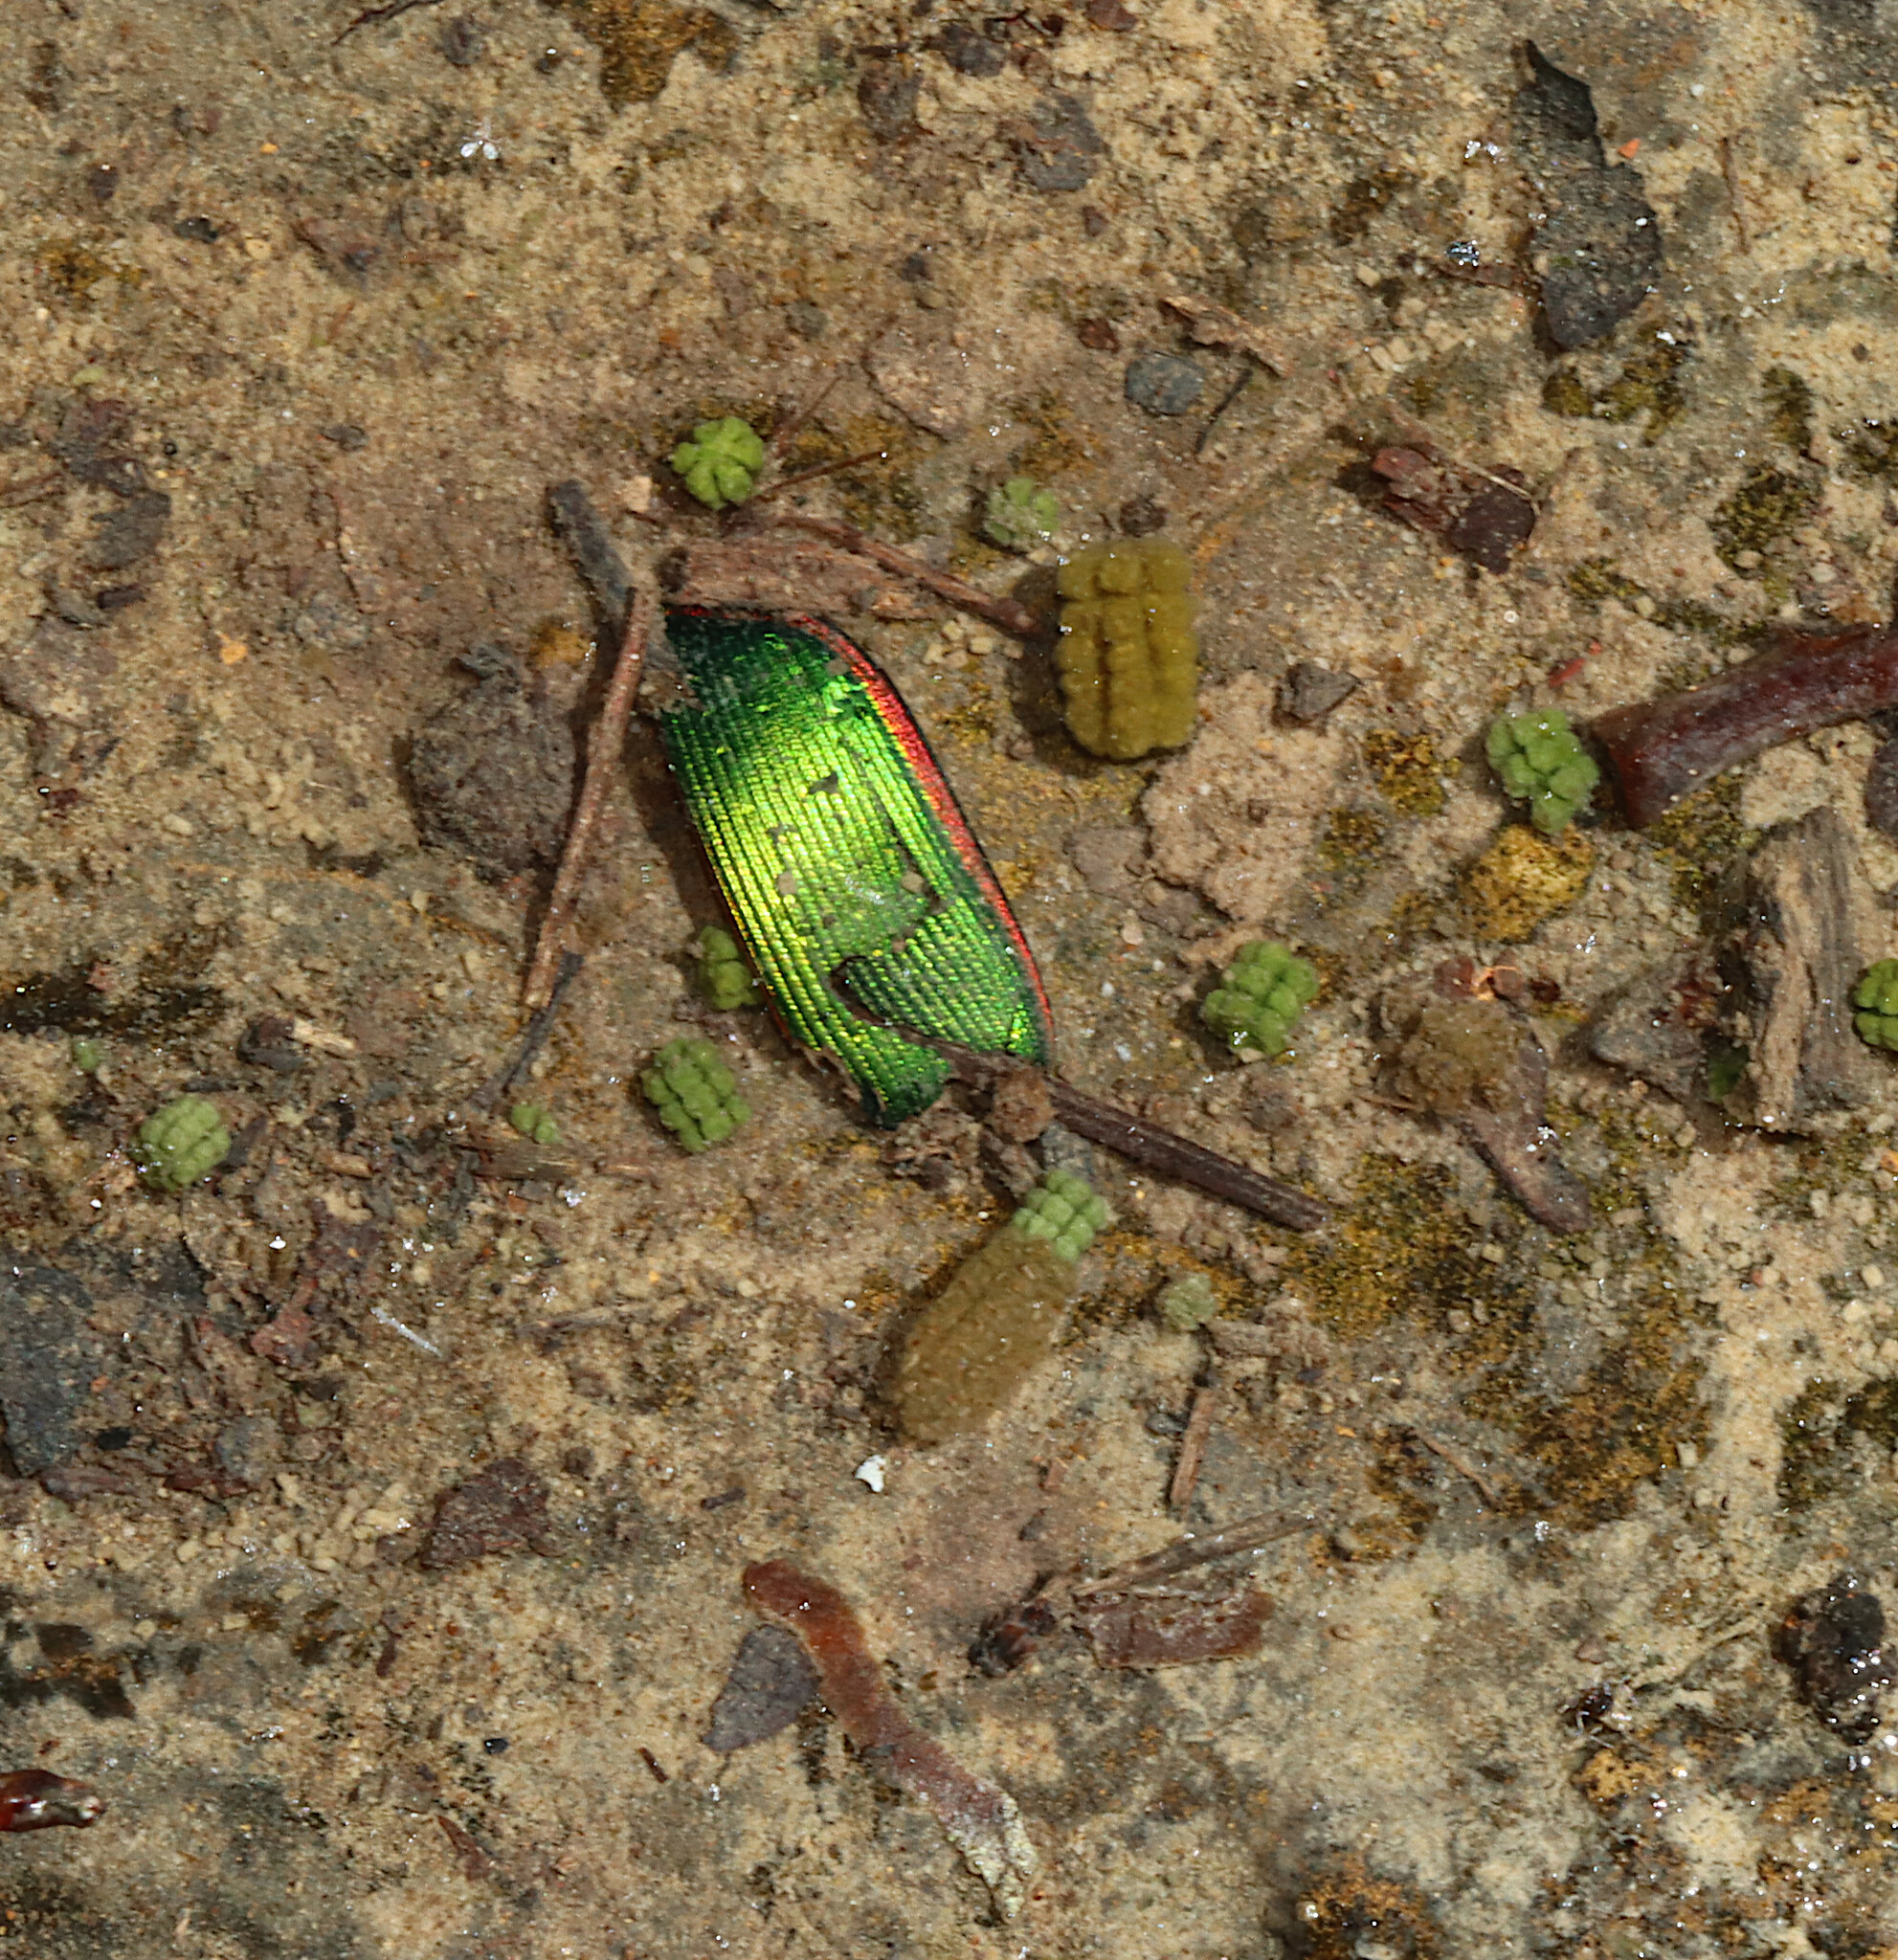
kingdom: Animalia
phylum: Arthropoda
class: Insecta
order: Coleoptera
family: Carabidae
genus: Calosoma
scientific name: Calosoma scrutator
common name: Fiery searcher beetle
